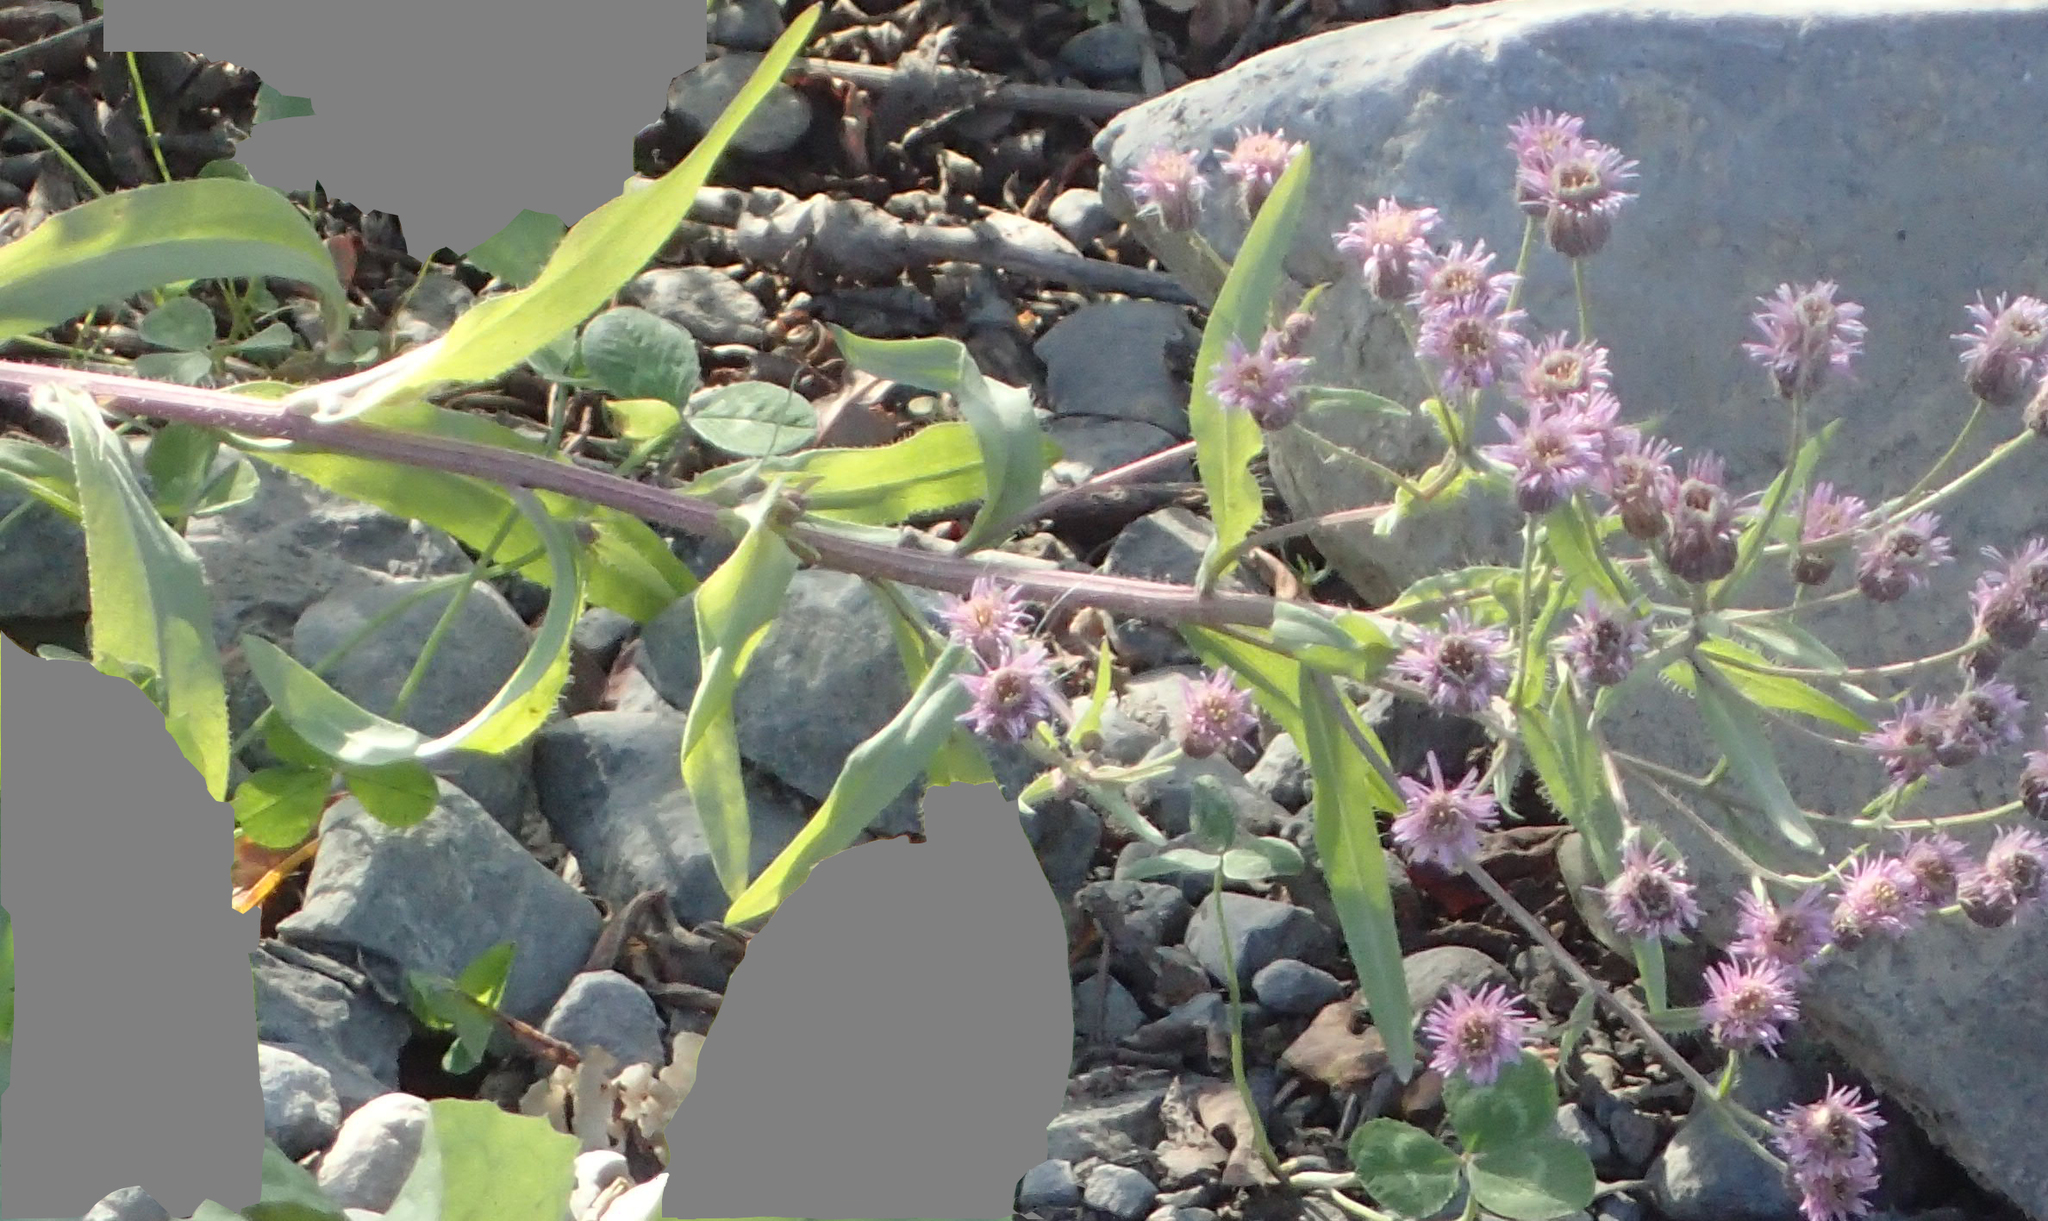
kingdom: Plantae
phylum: Tracheophyta
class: Magnoliopsida
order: Asterales
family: Asteraceae
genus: Erigeron
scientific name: Erigeron acris
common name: Blue fleabane
